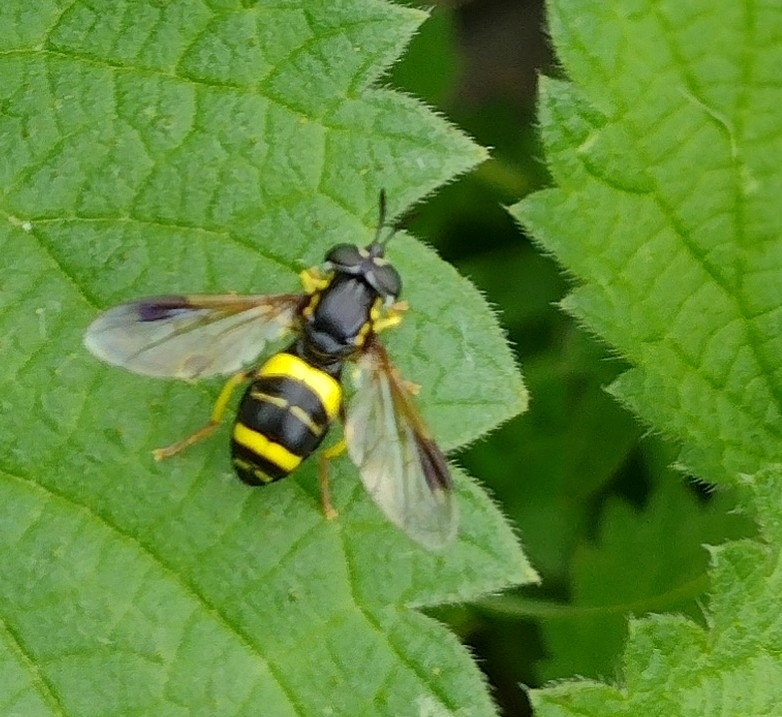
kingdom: Animalia
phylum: Arthropoda
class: Insecta
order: Diptera
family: Syrphidae
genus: Chrysotoxum
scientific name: Chrysotoxum bicincta
